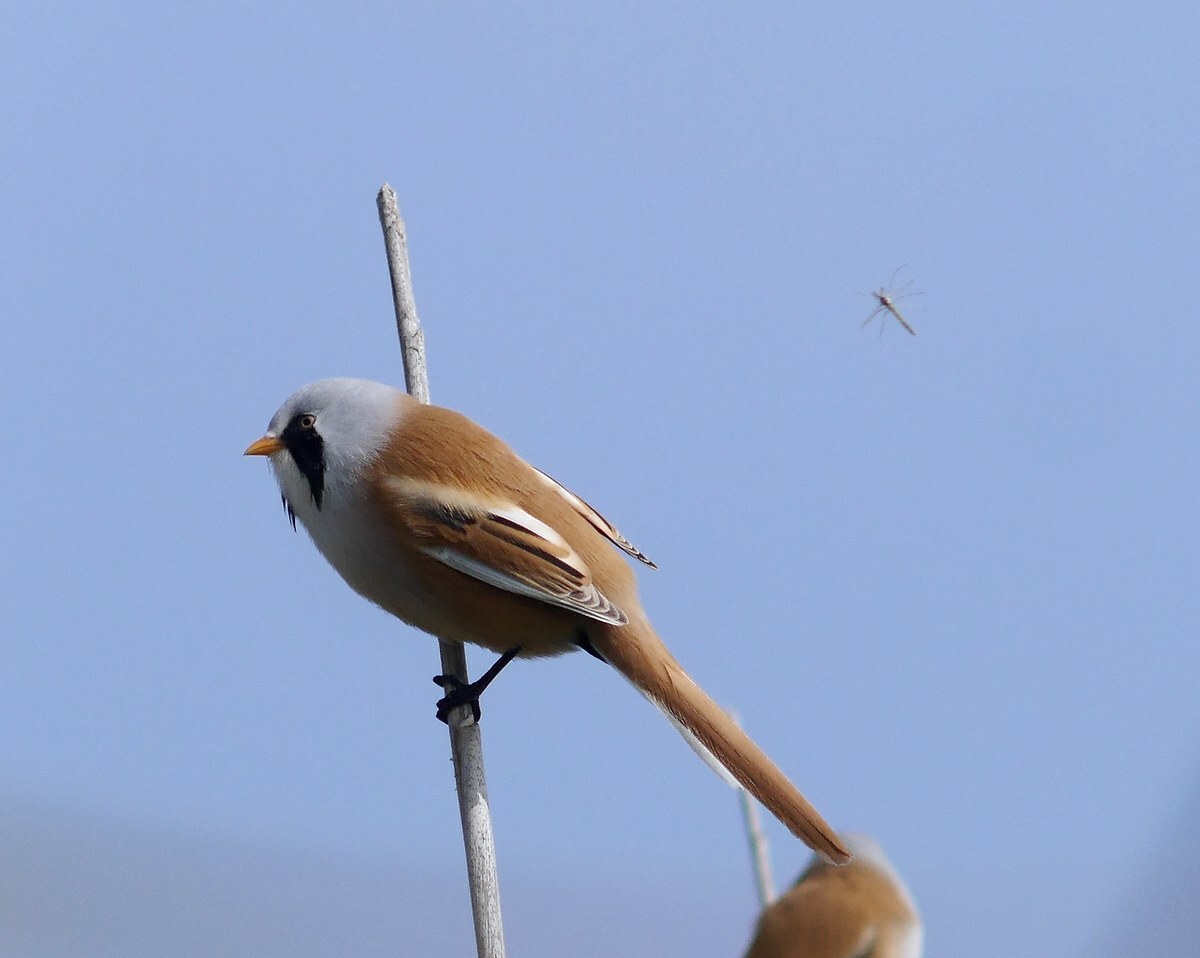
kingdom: Animalia
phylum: Chordata
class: Aves
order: Passeriformes
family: Panuridae
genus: Panurus
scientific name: Panurus biarmicus
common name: Bearded reedling
